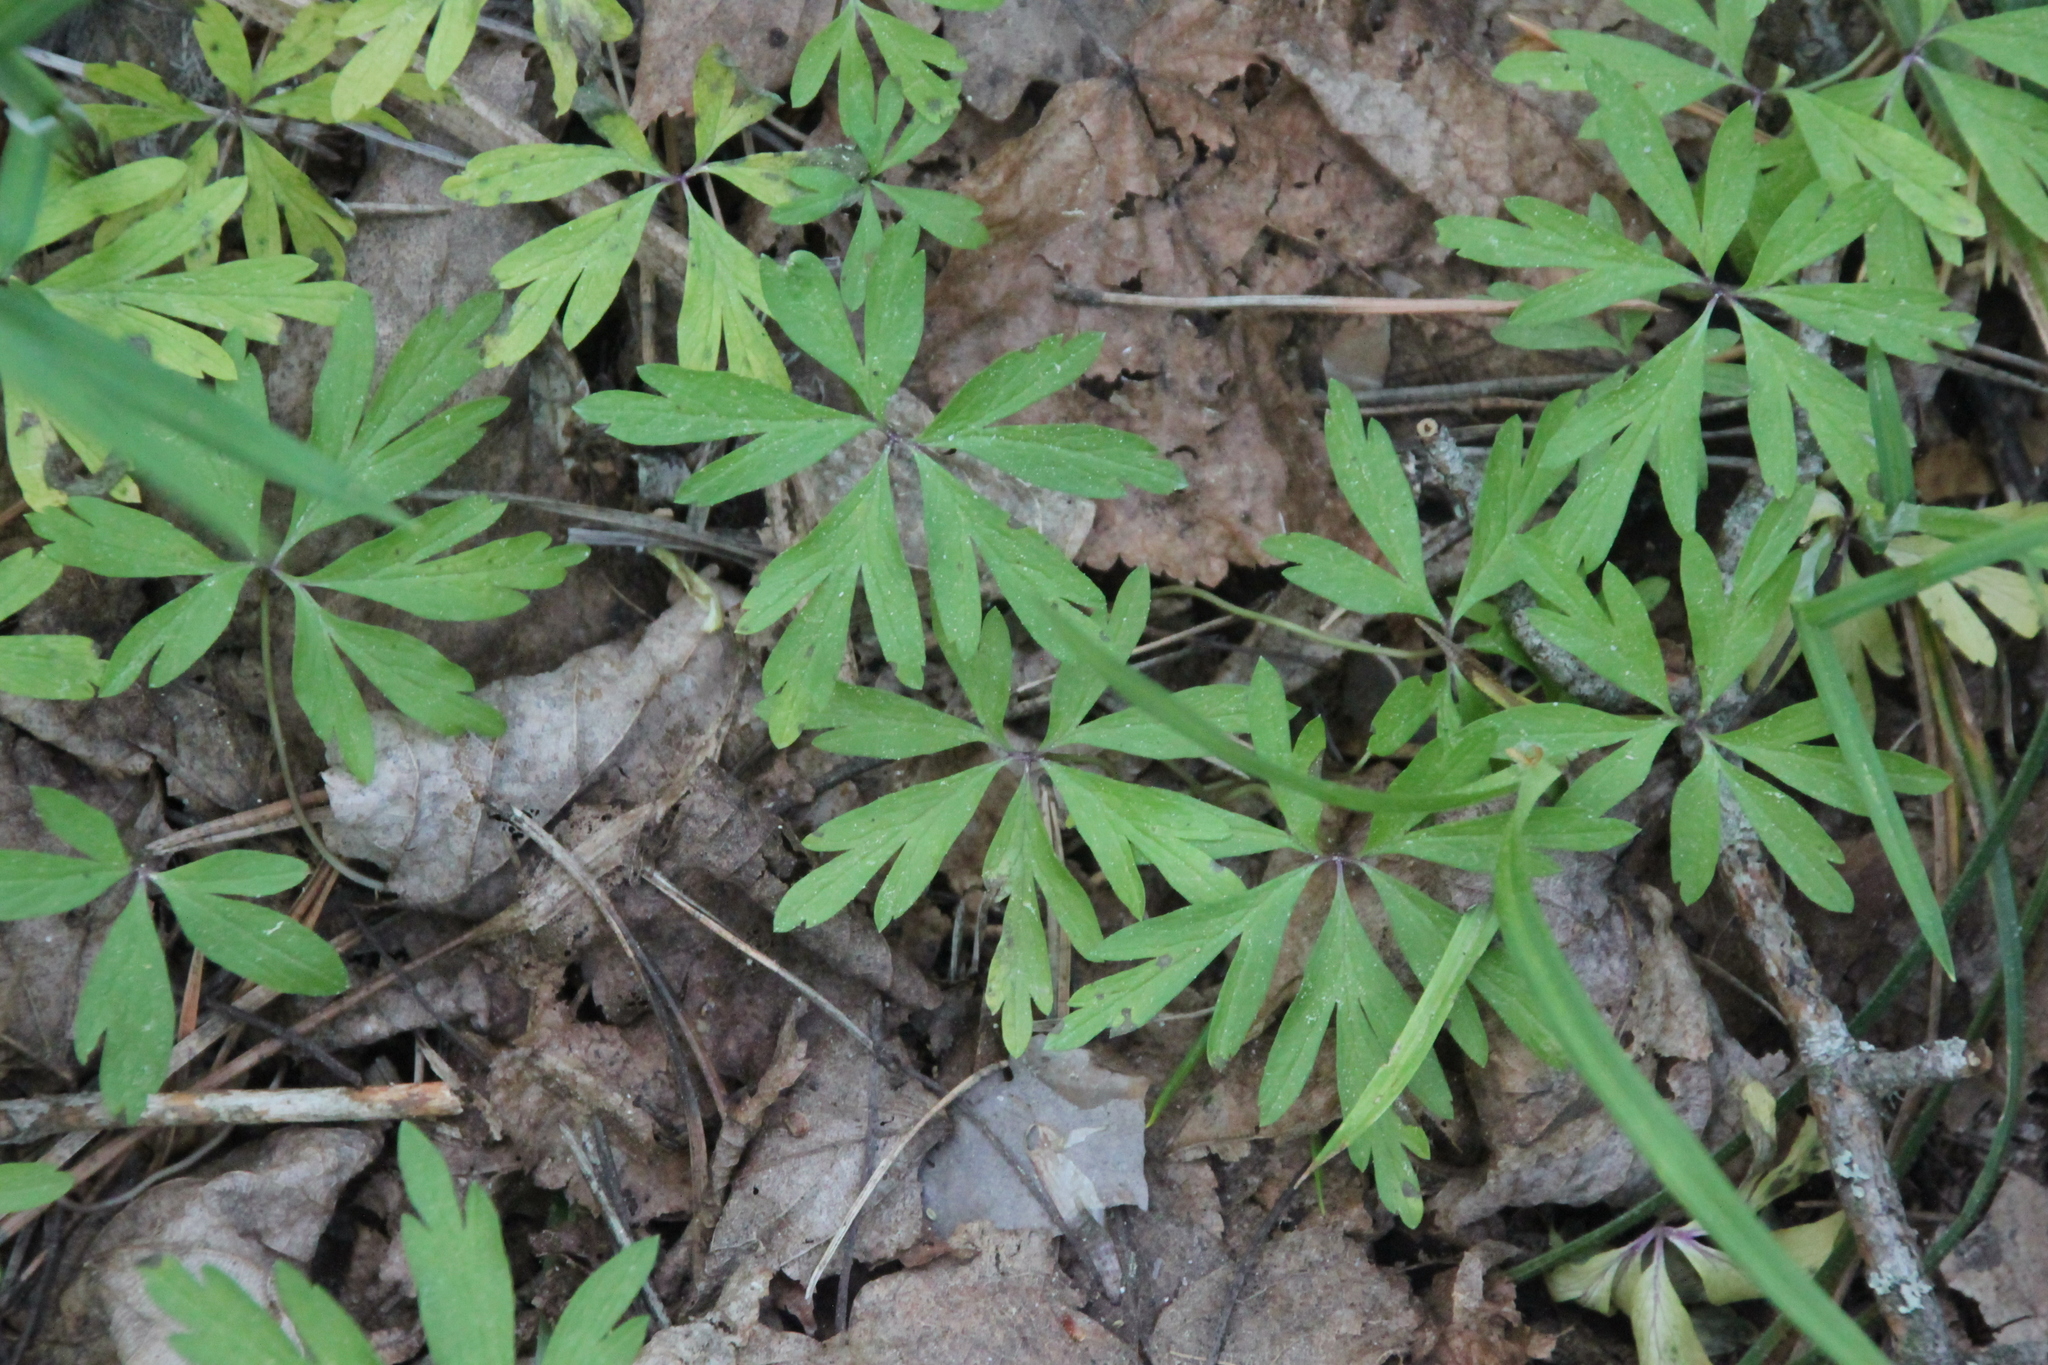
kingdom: Plantae
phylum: Tracheophyta
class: Magnoliopsida
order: Ranunculales
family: Ranunculaceae
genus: Anemone
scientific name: Anemone ranunculoides
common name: Yellow anemone
